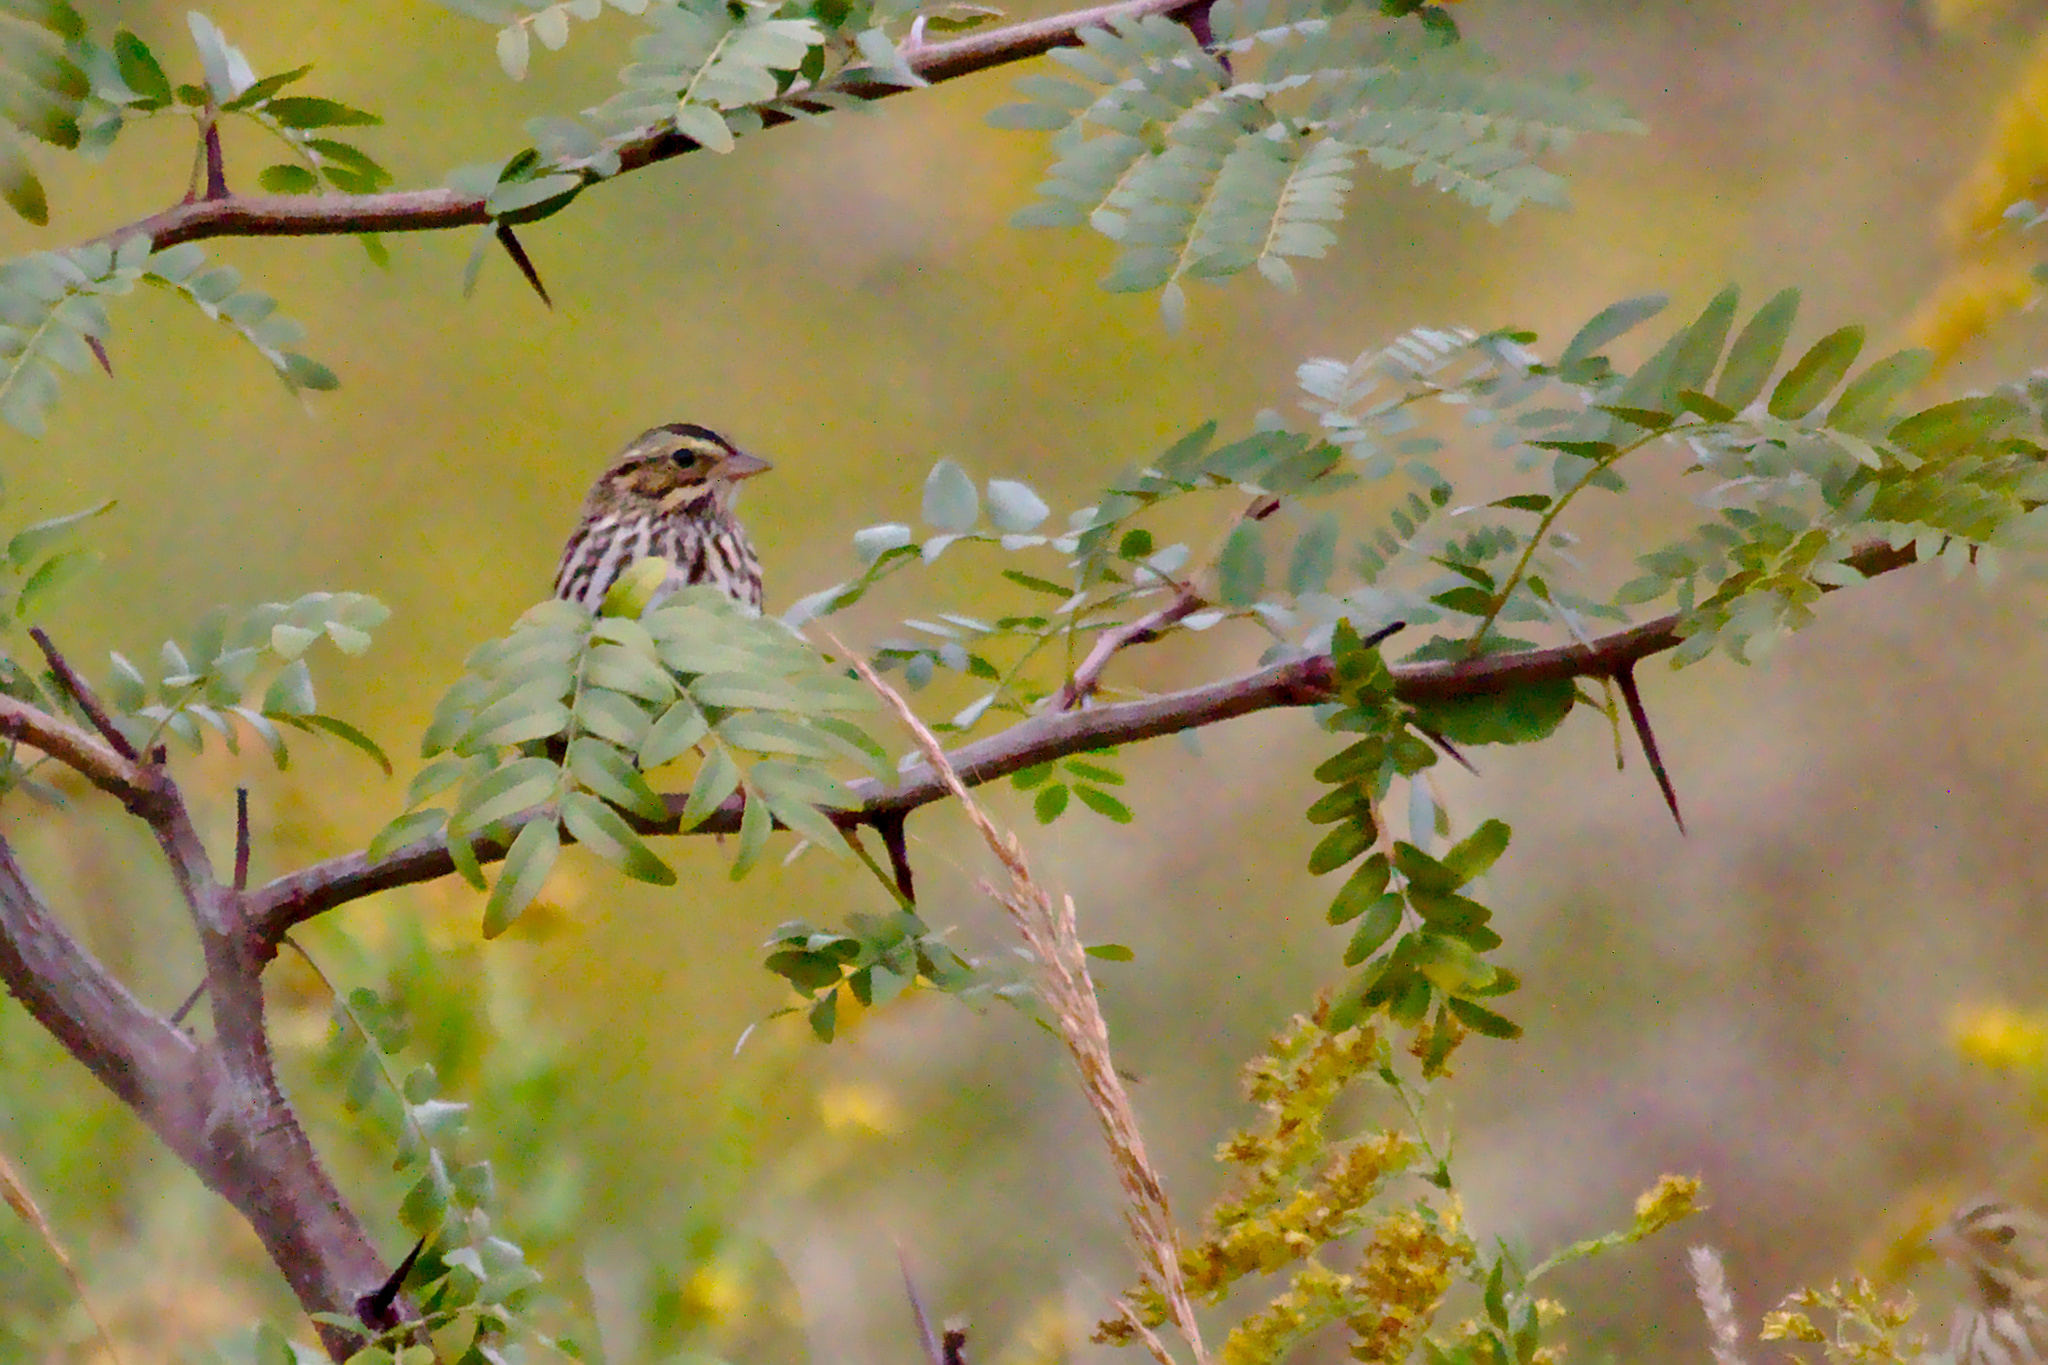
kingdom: Animalia
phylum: Chordata
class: Aves
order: Passeriformes
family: Passerellidae
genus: Passerculus
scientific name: Passerculus sandwichensis
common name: Savannah sparrow
